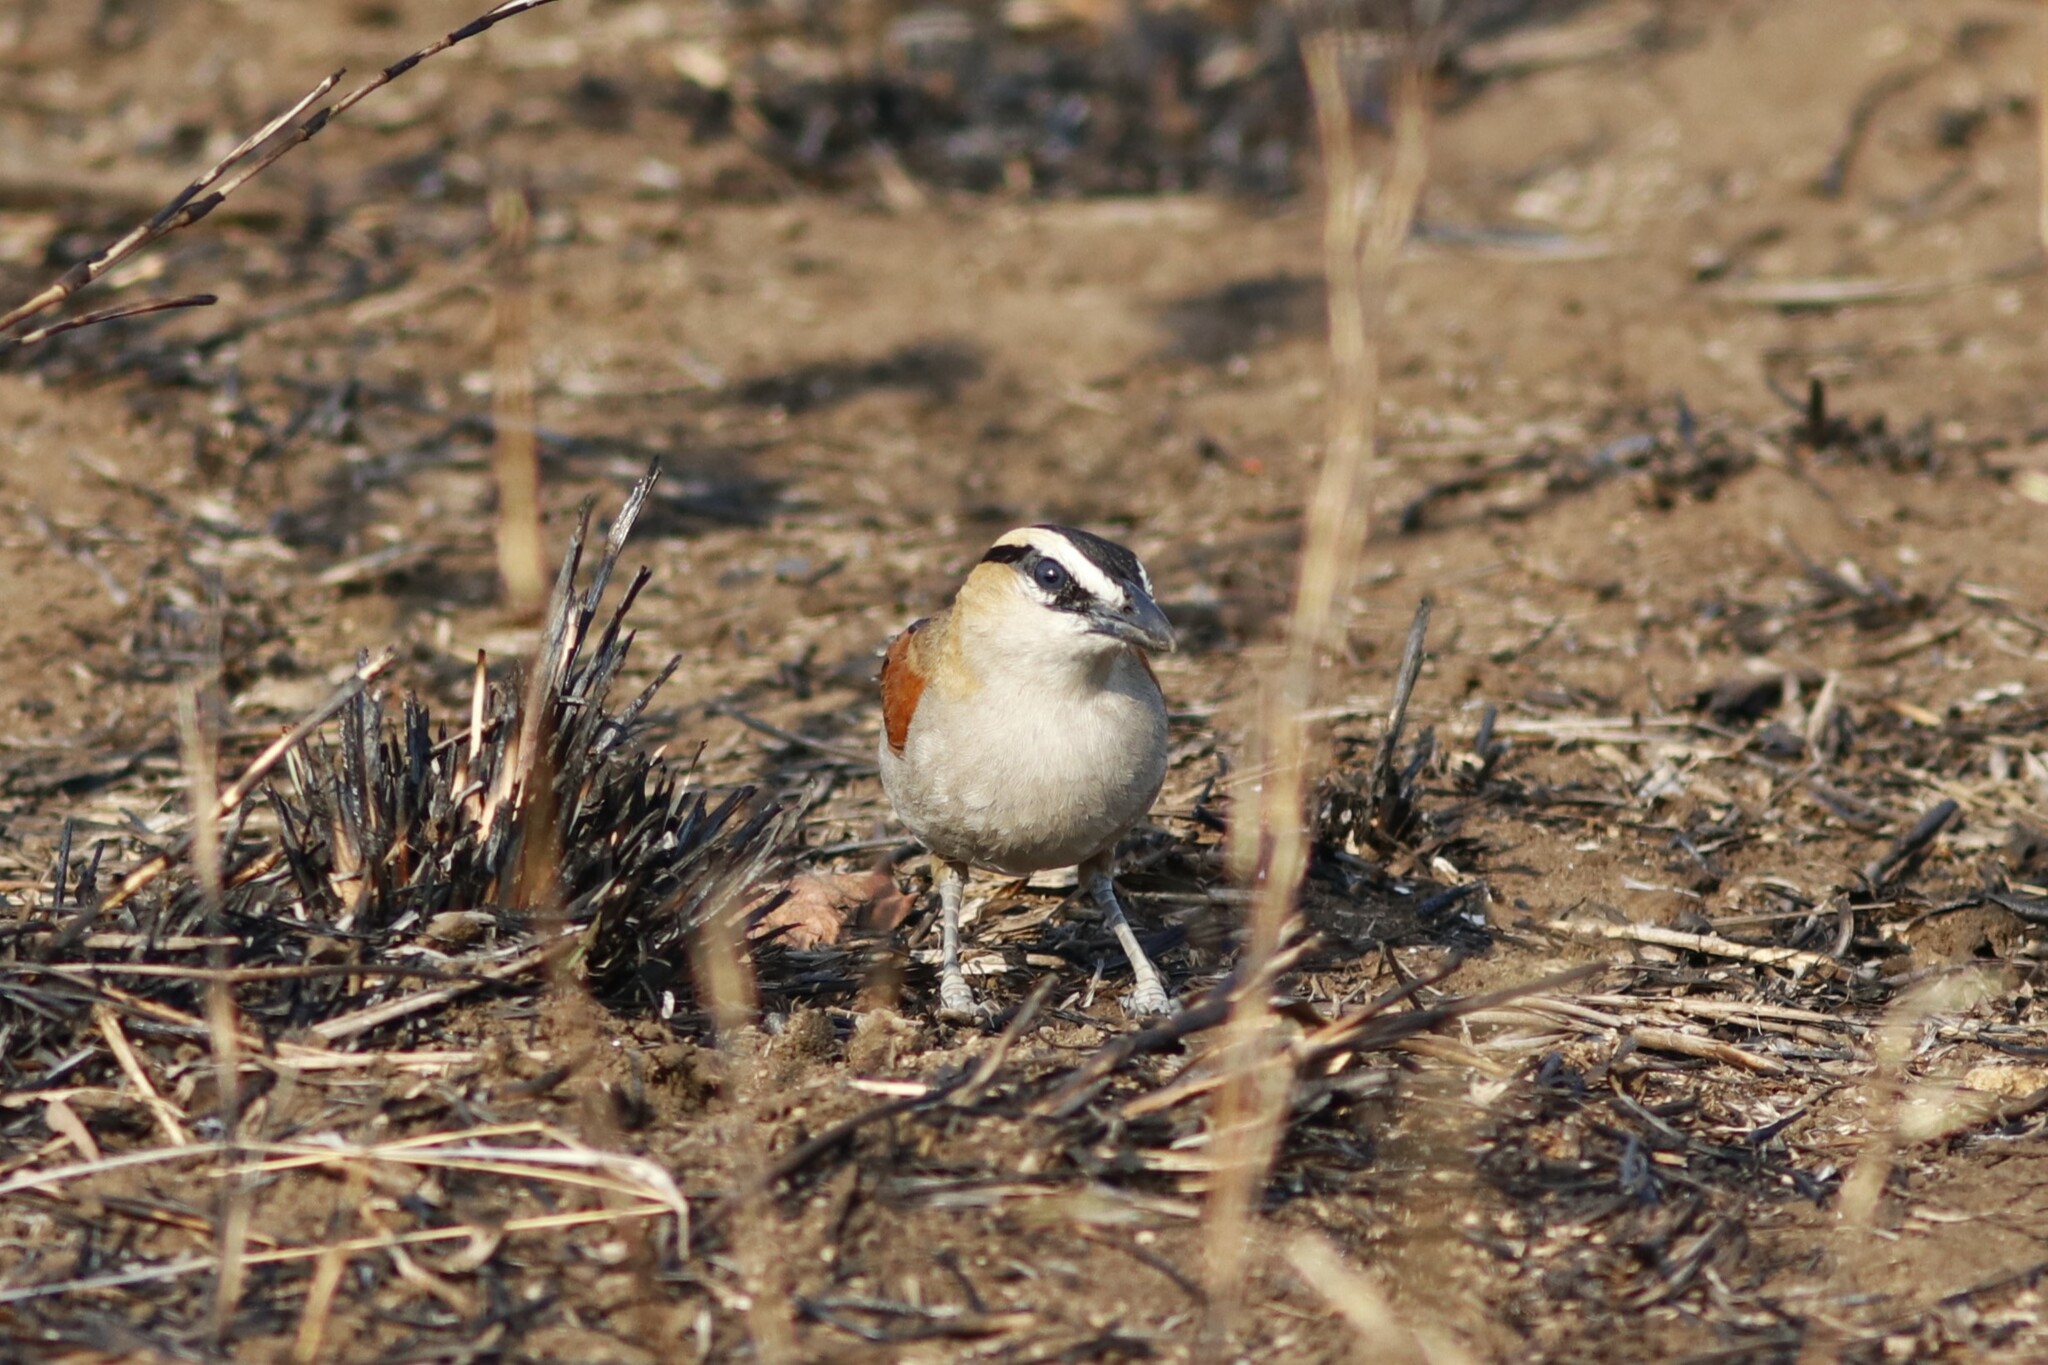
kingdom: Animalia
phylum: Chordata
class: Aves
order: Passeriformes
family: Malaconotidae
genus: Tchagra
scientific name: Tchagra senegalus
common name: Black-crowned tchagra
